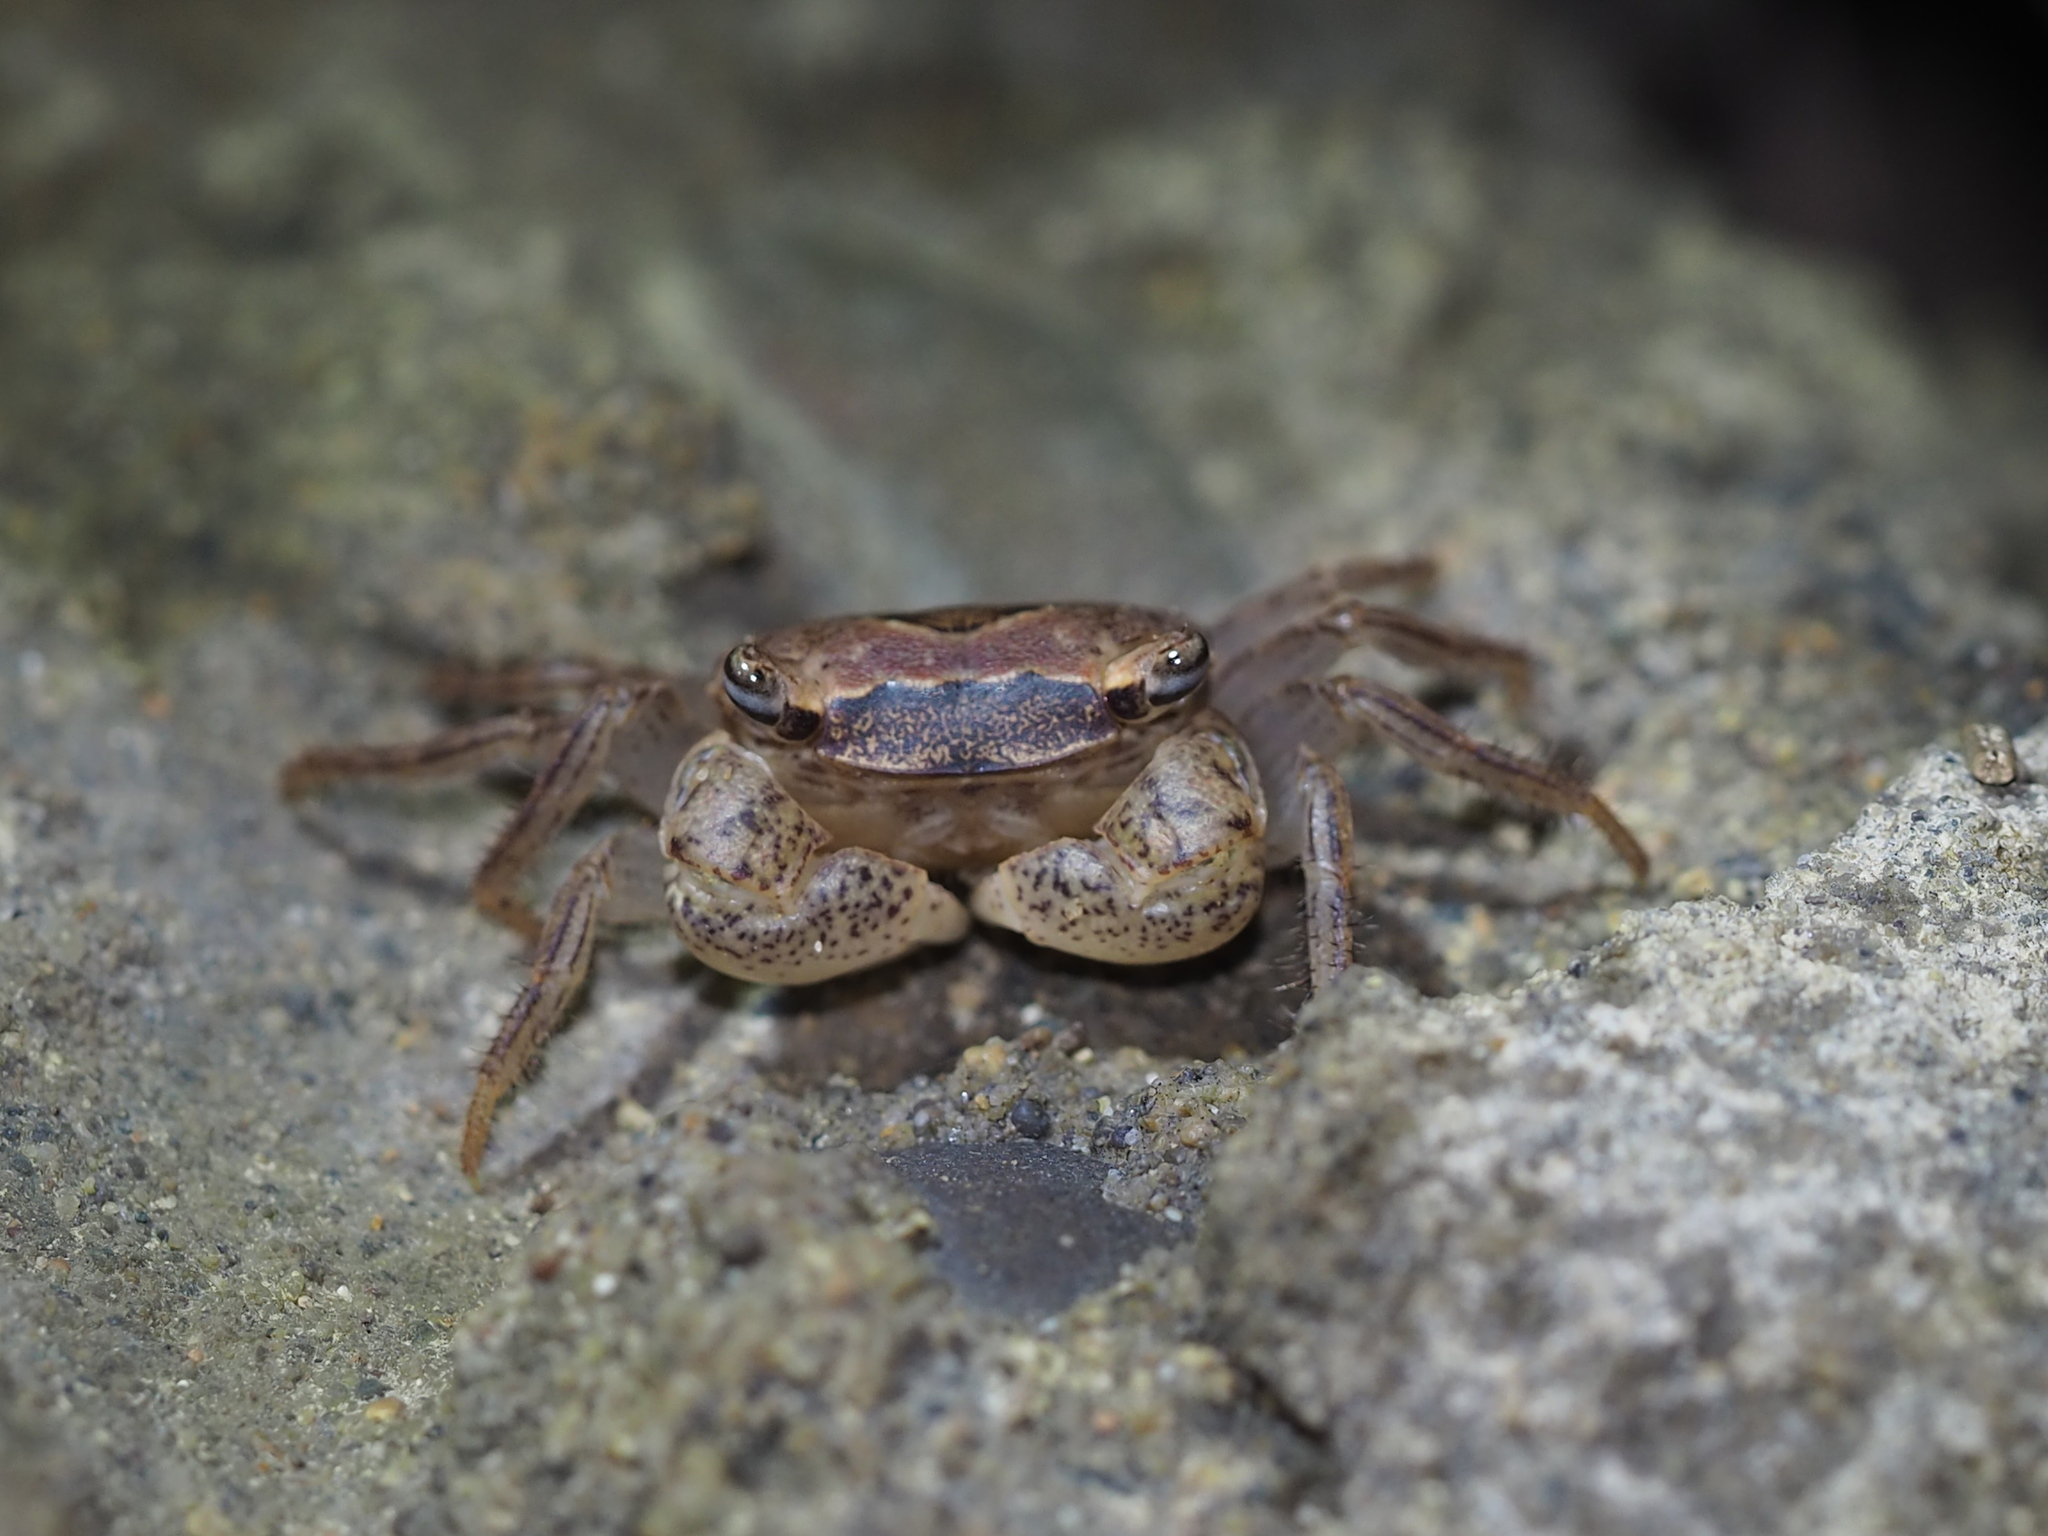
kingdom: Animalia
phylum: Arthropoda
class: Malacostraca
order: Decapoda
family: Sesarmidae
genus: Metasesarma
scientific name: Metasesarma obesum
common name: Marble crab
